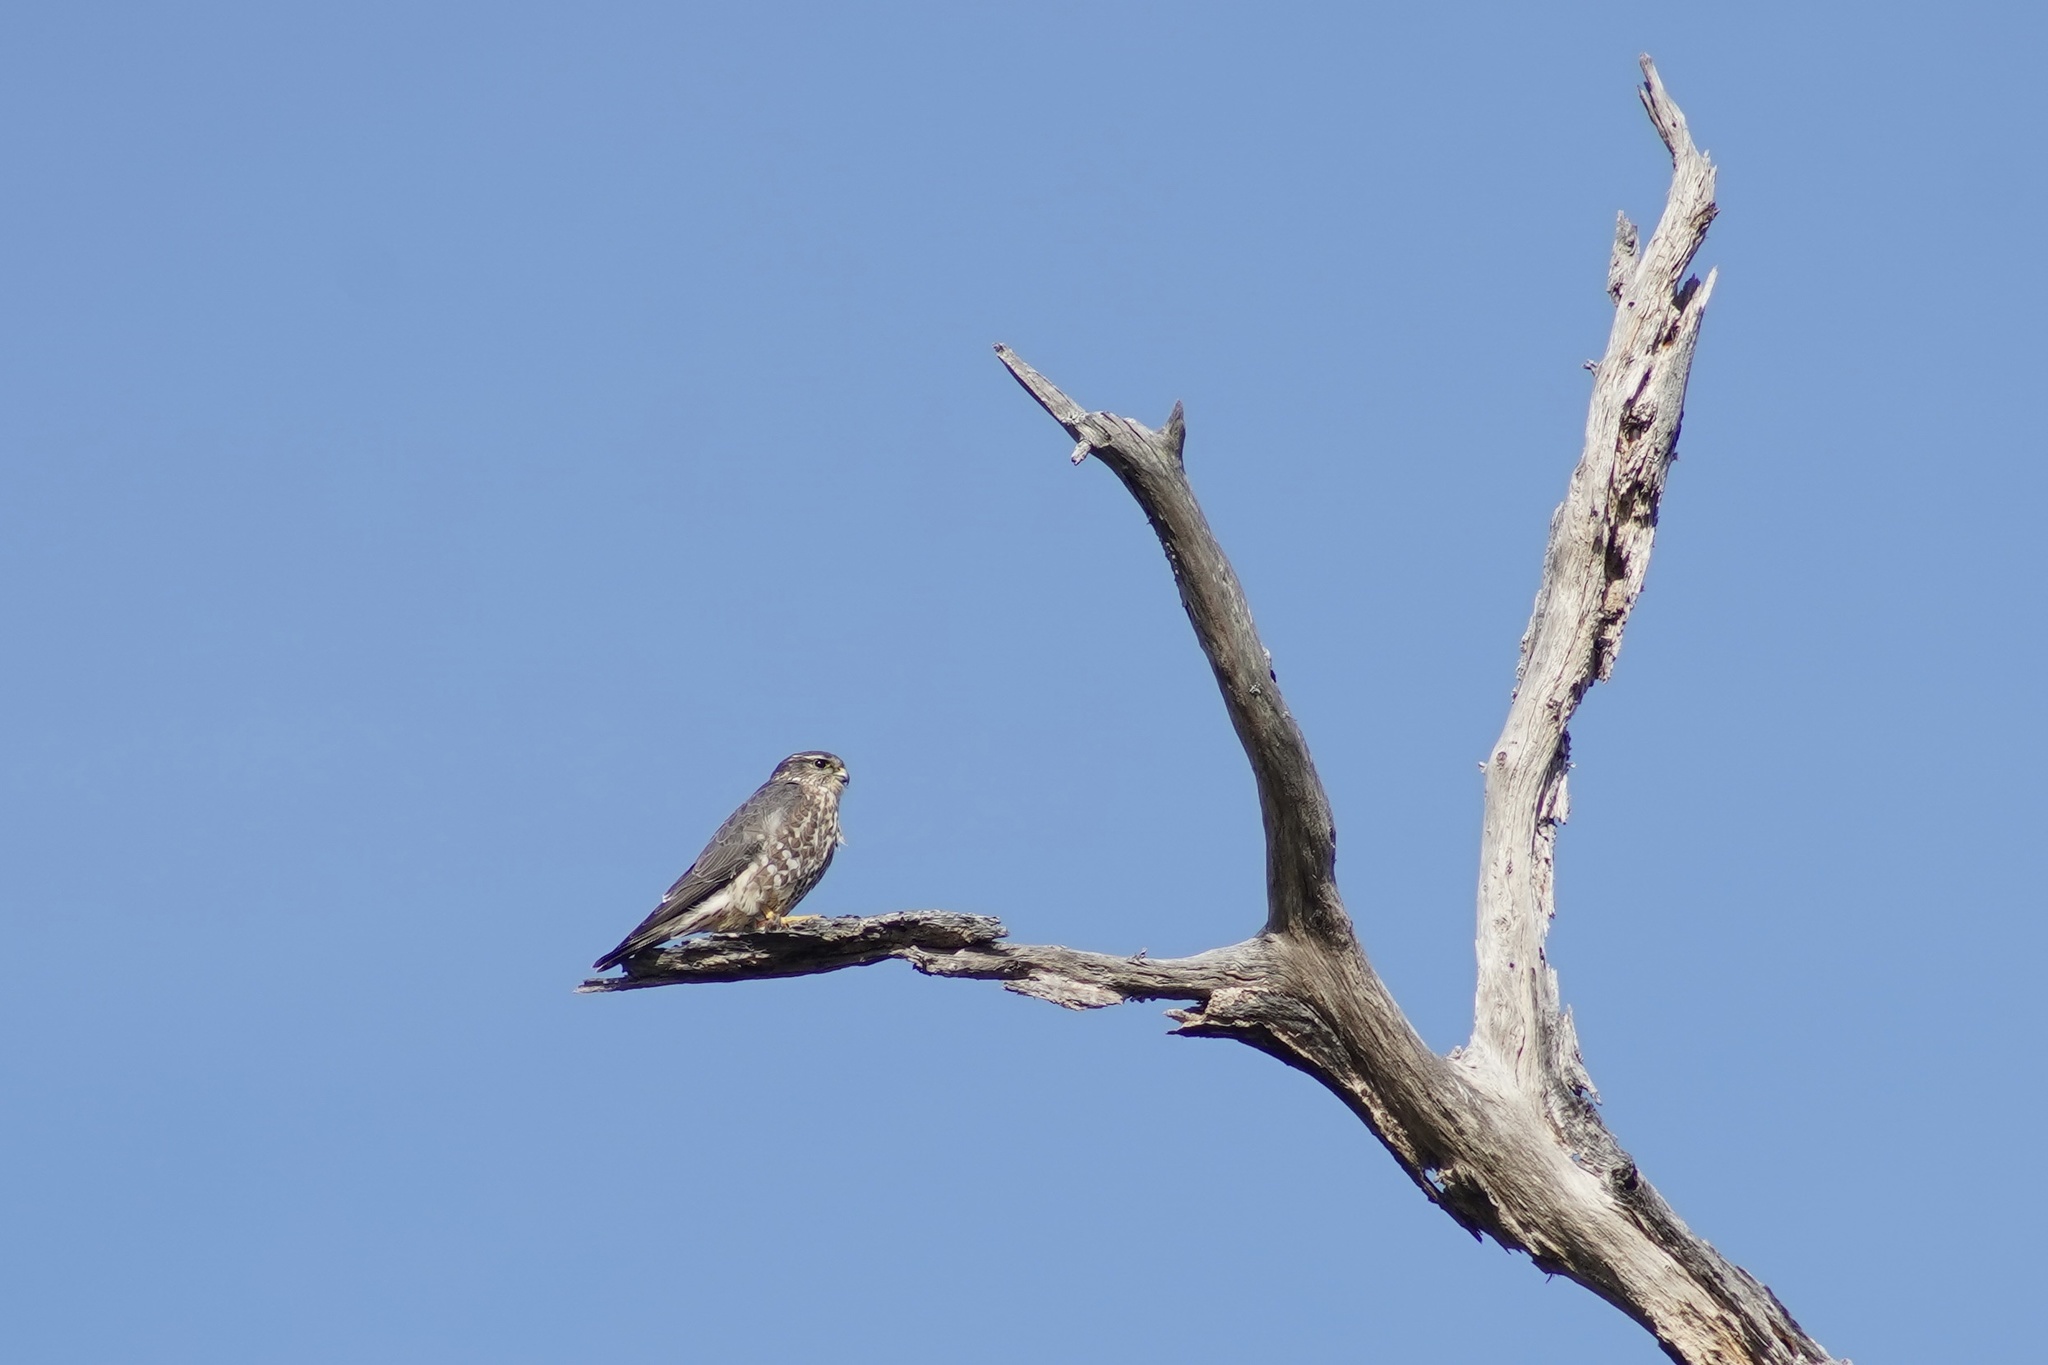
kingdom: Animalia
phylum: Chordata
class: Aves
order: Falconiformes
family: Falconidae
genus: Falco
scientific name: Falco columbarius
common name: Merlin
